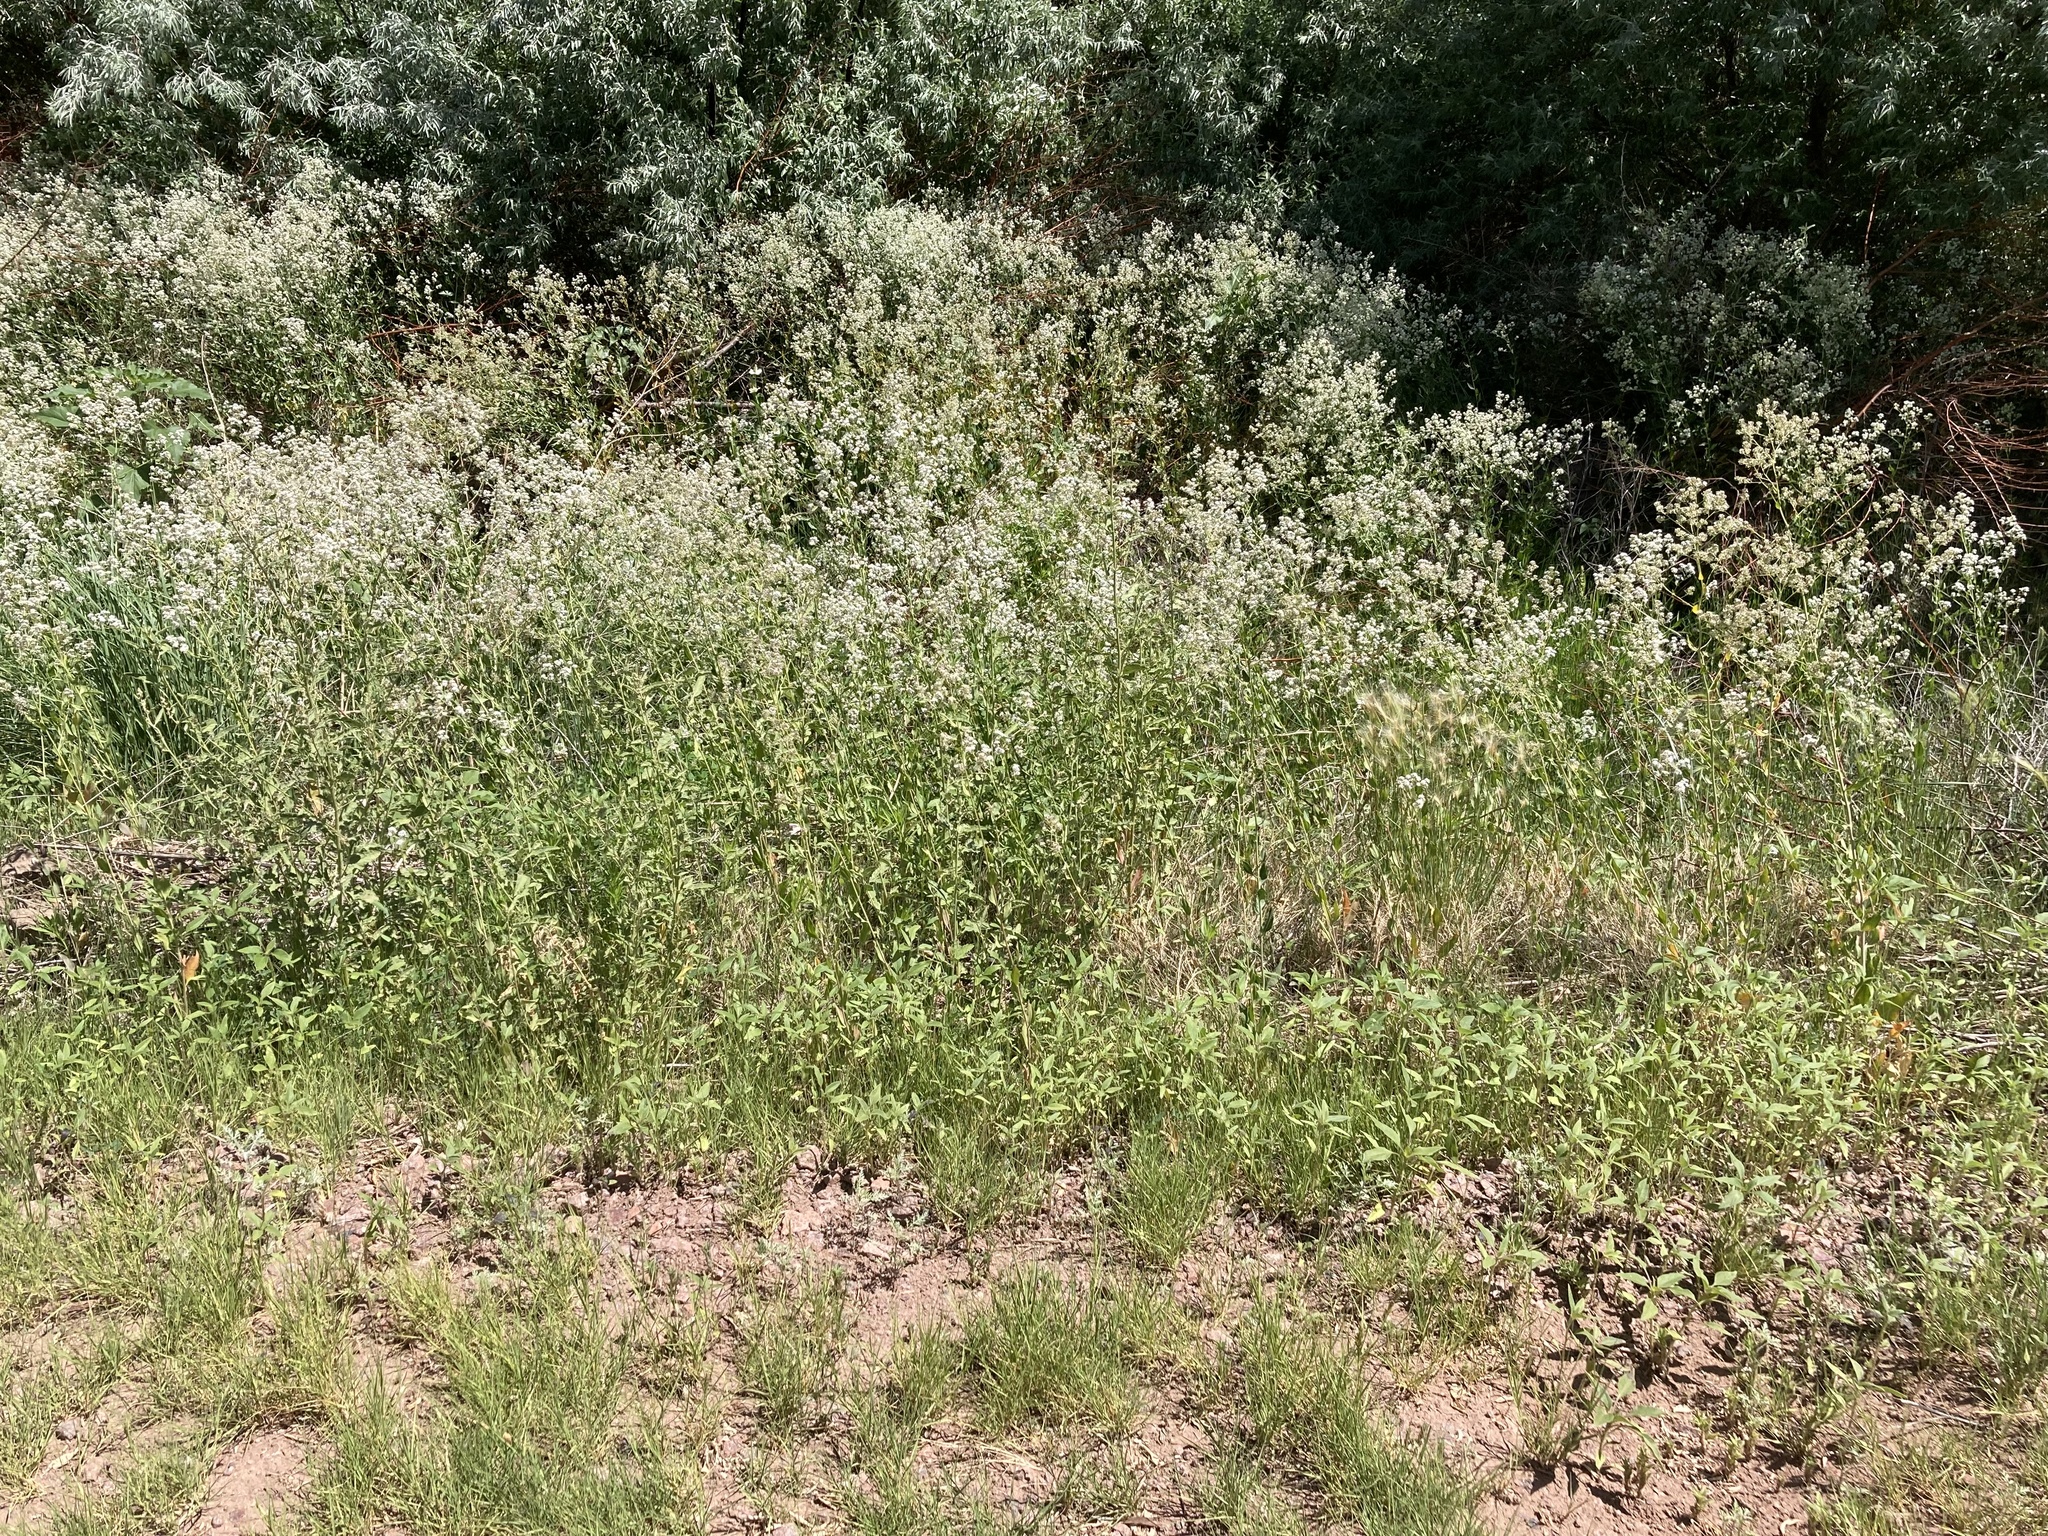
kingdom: Plantae
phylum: Tracheophyta
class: Magnoliopsida
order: Brassicales
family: Brassicaceae
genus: Lepidium
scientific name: Lepidium latifolium
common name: Dittander
